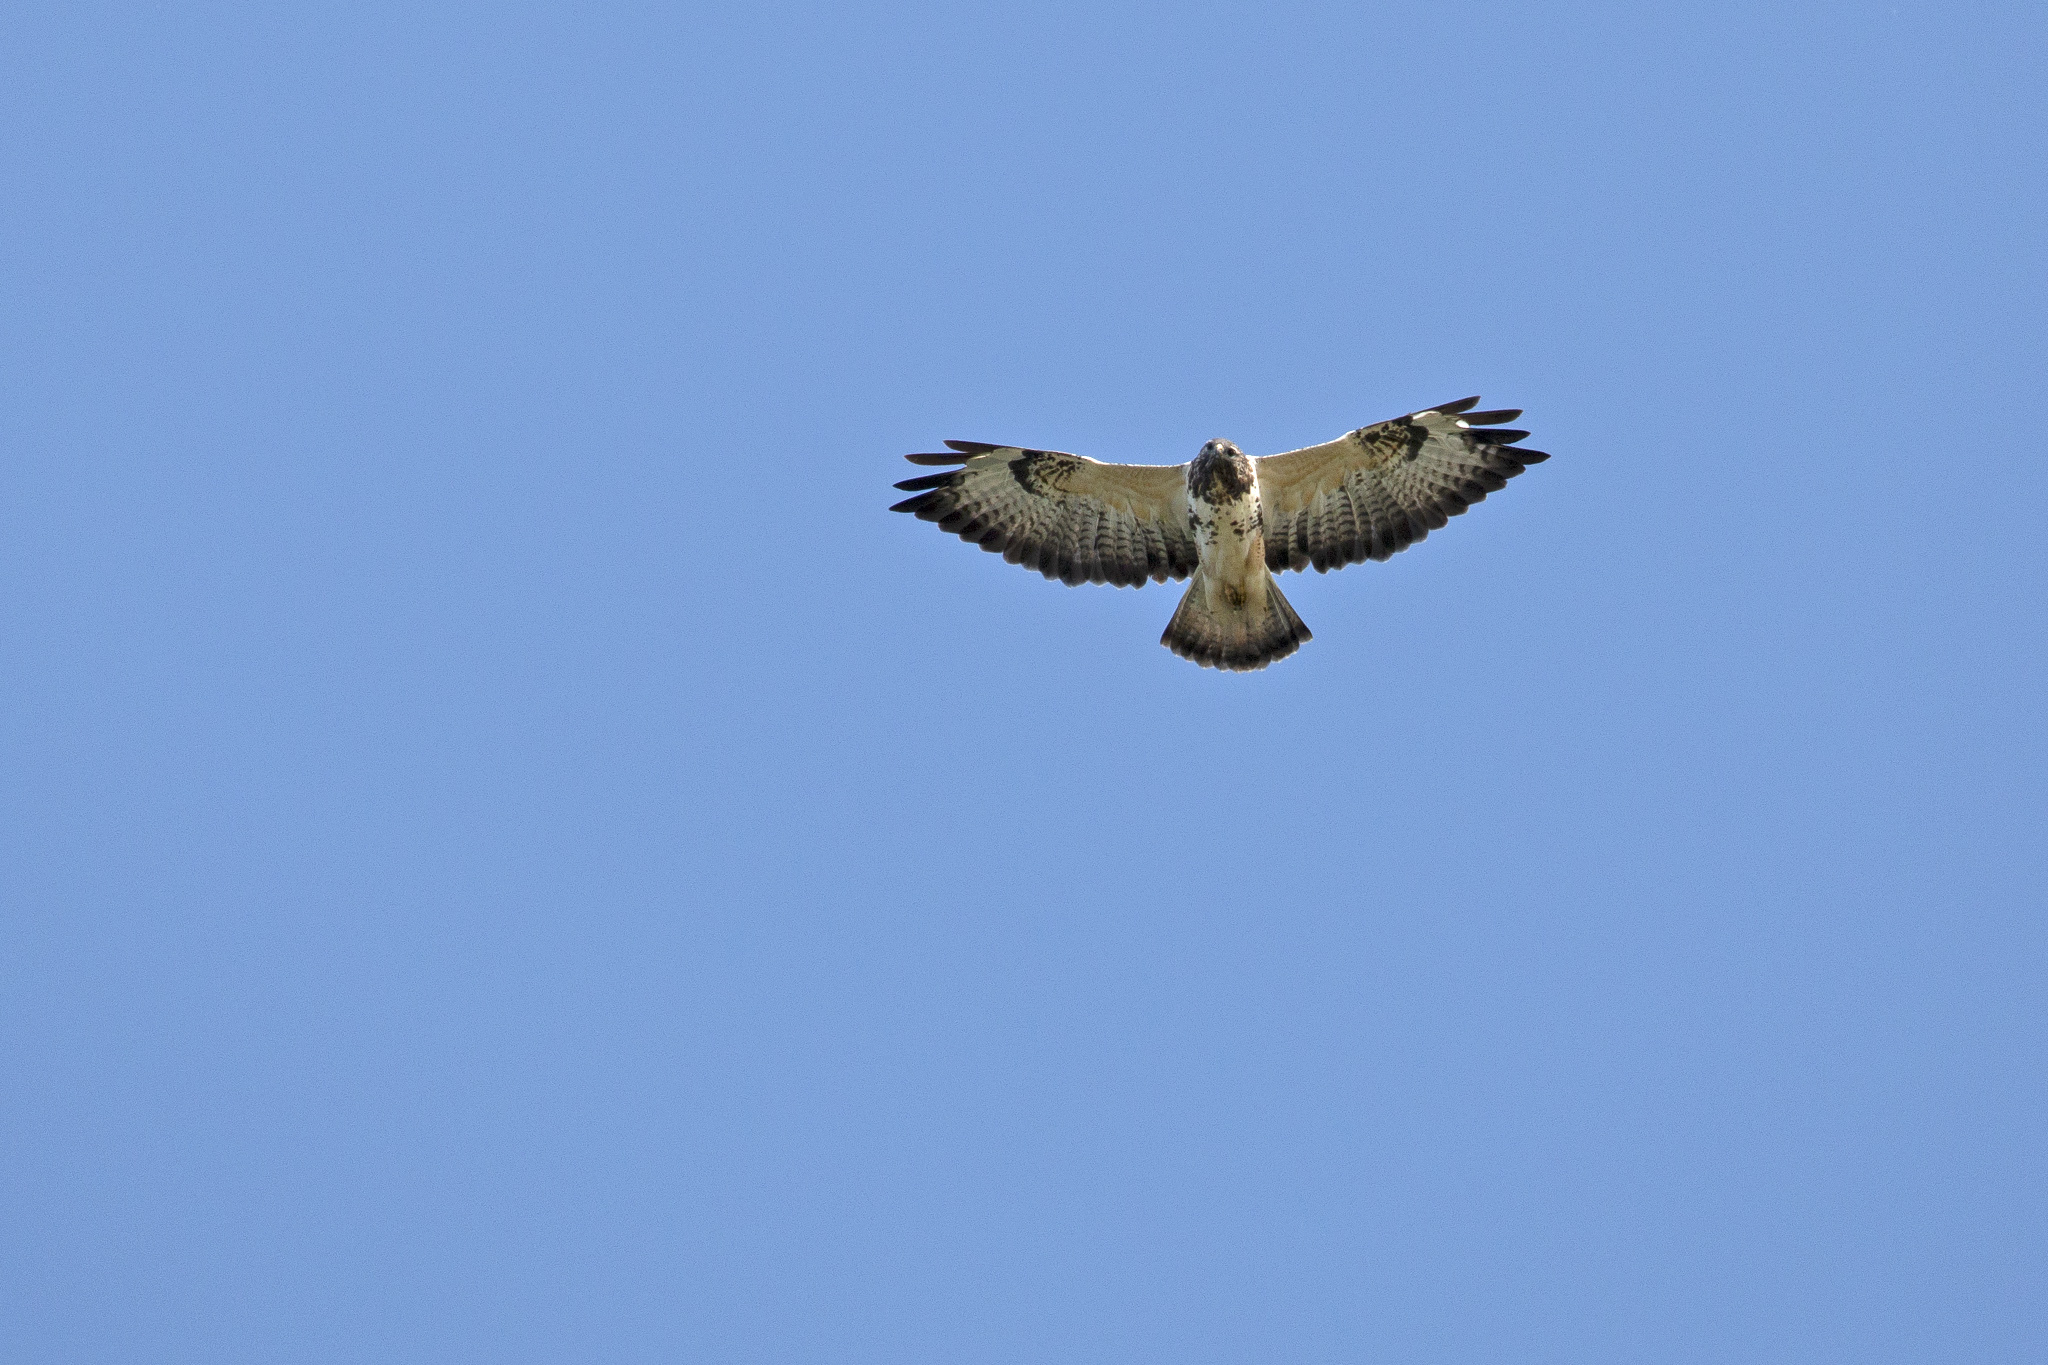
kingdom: Animalia
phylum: Chordata
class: Aves
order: Accipitriformes
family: Accipitridae
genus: Buteo
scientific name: Buteo buteo
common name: Common buzzard
